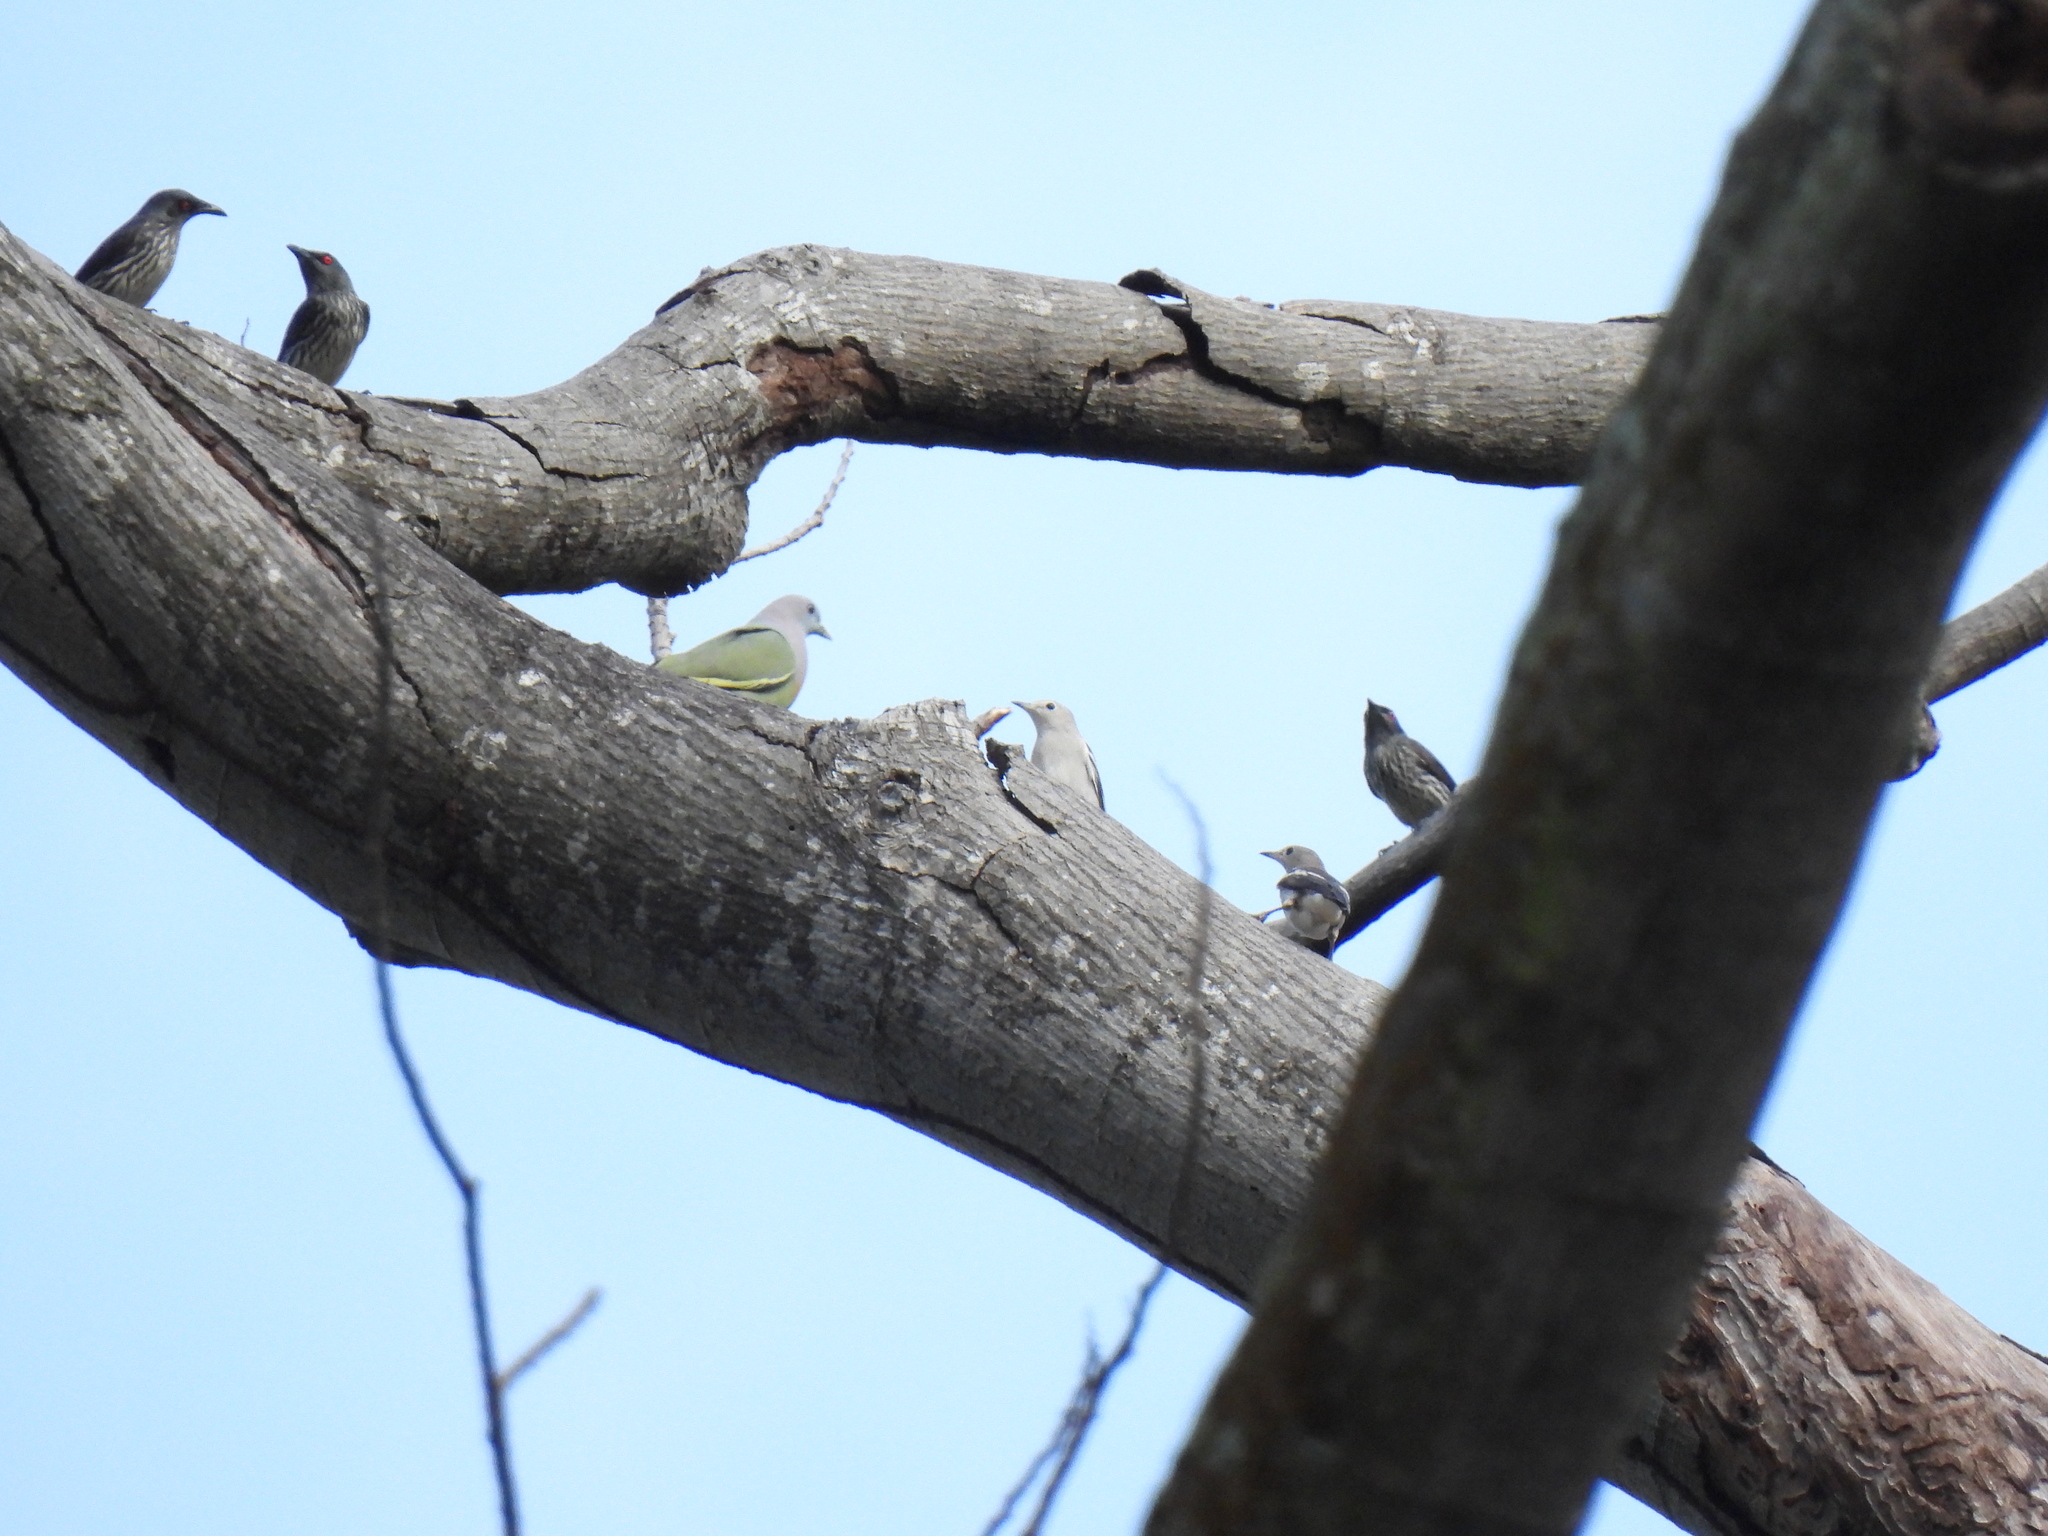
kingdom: Animalia
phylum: Chordata
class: Aves
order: Passeriformes
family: Sturnidae
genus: Aplonis
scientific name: Aplonis panayensis
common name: Asian glossy starling
